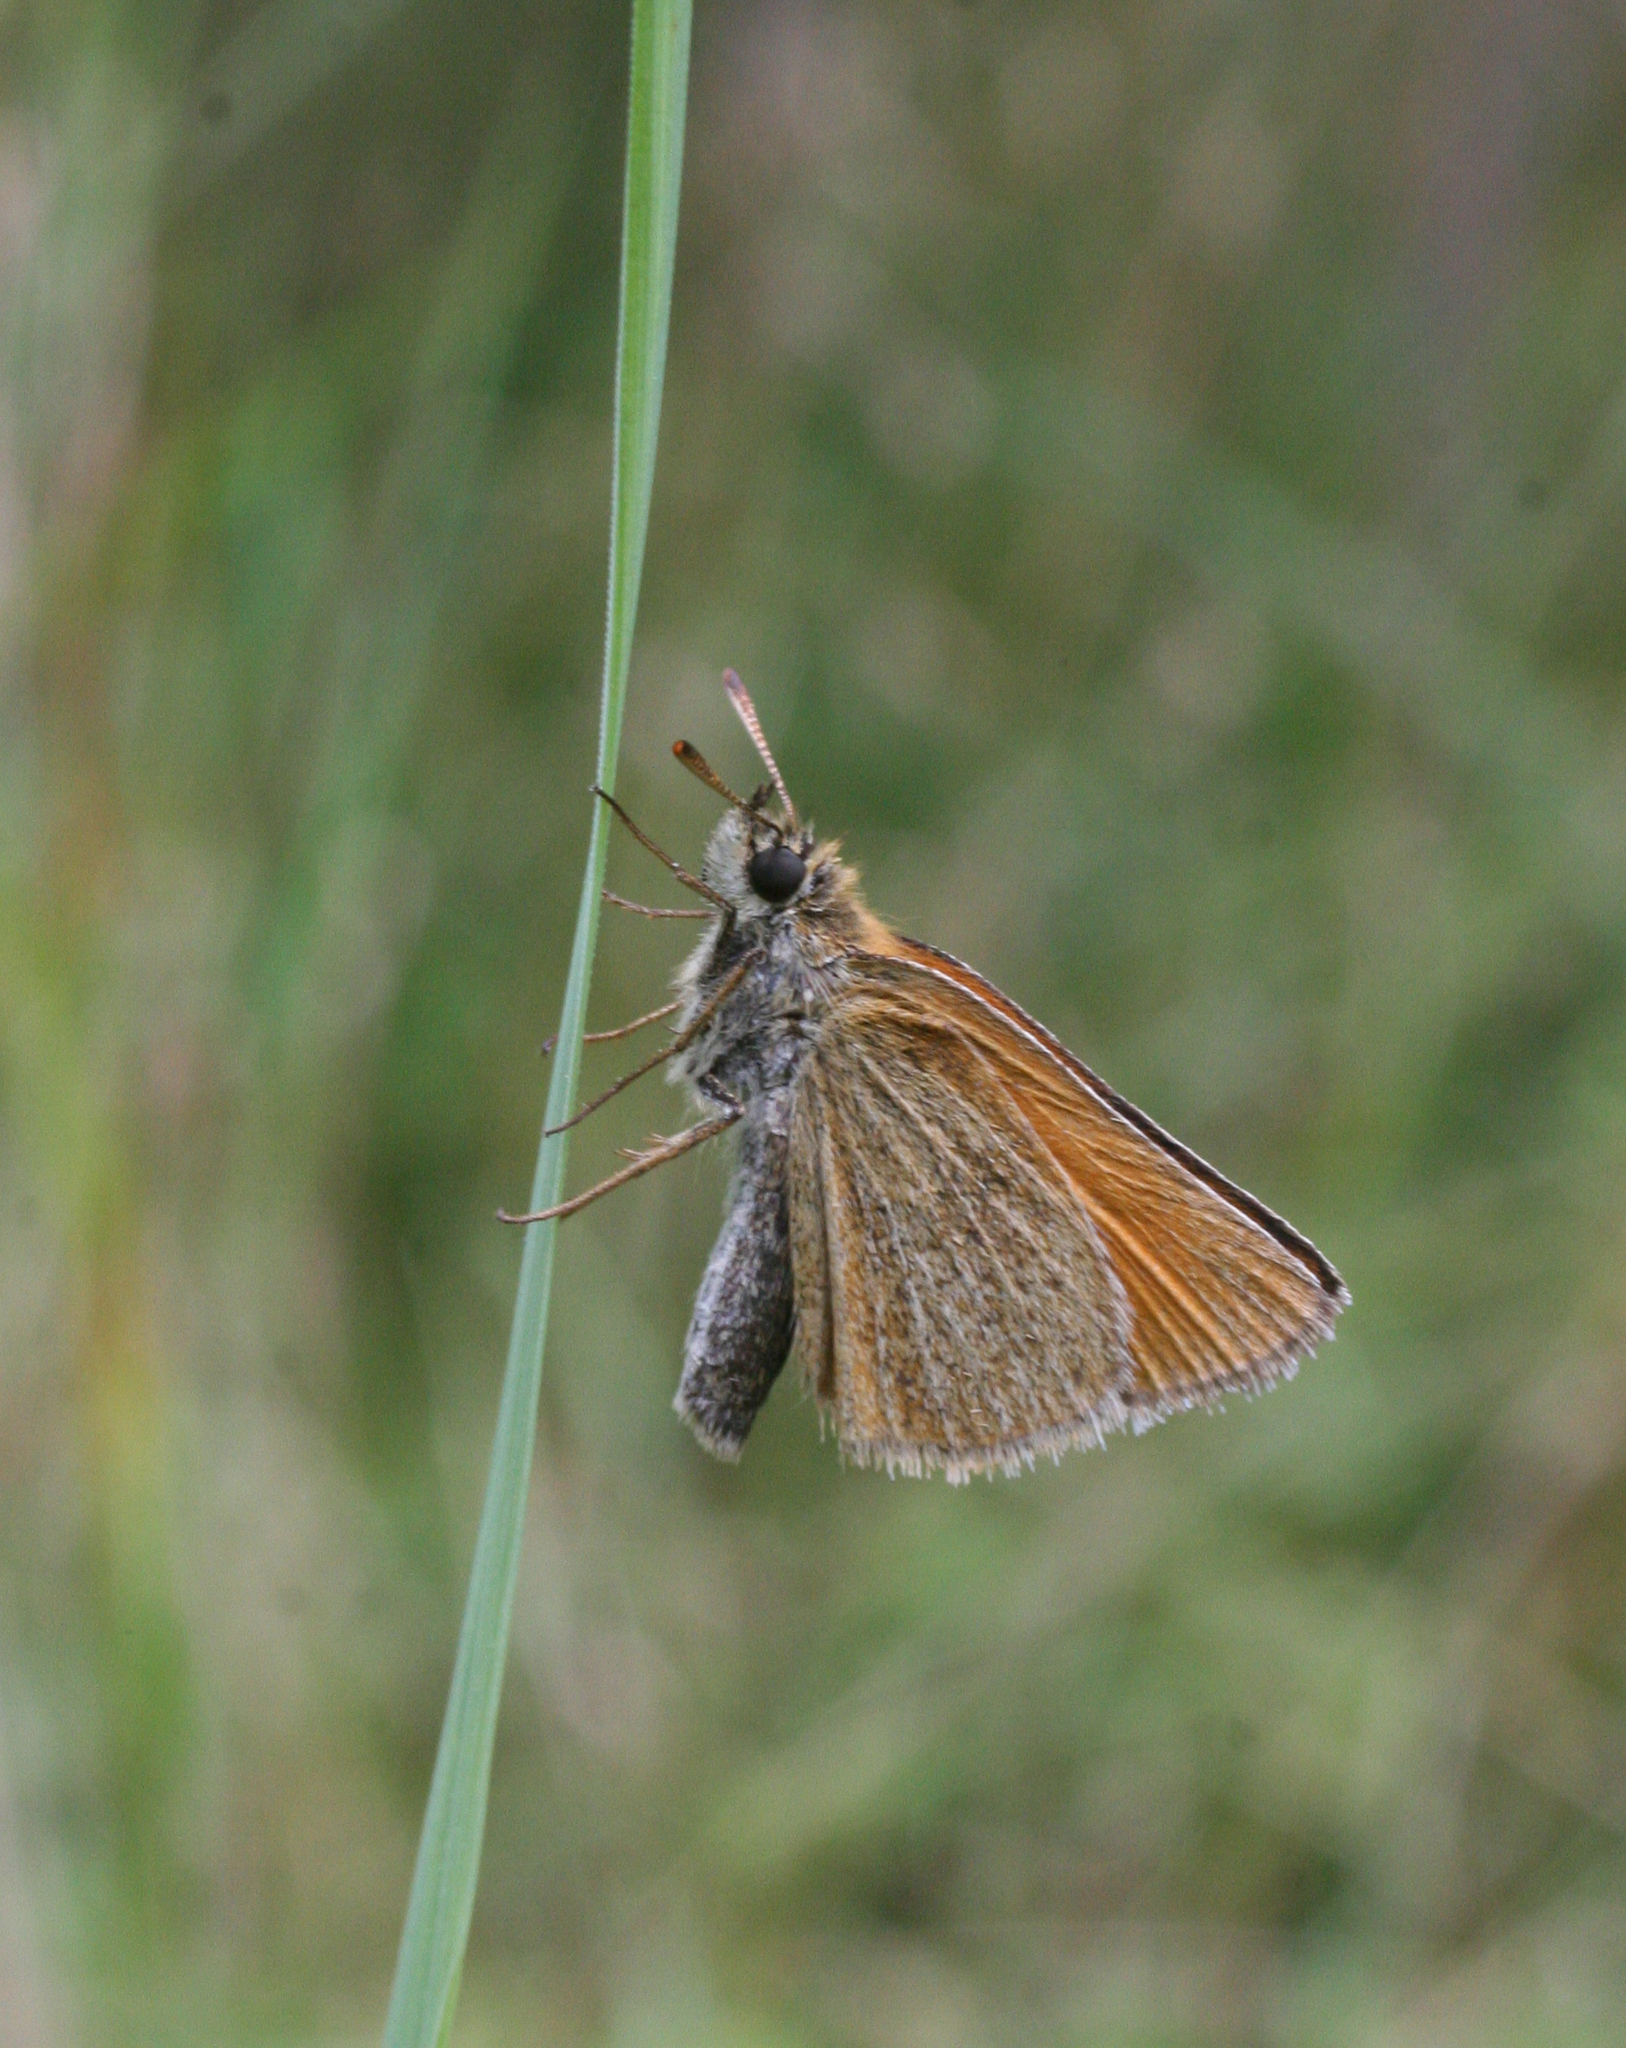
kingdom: Animalia
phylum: Arthropoda
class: Insecta
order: Lepidoptera
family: Hesperiidae
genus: Thymelicus
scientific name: Thymelicus lineola
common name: Essex skipper
